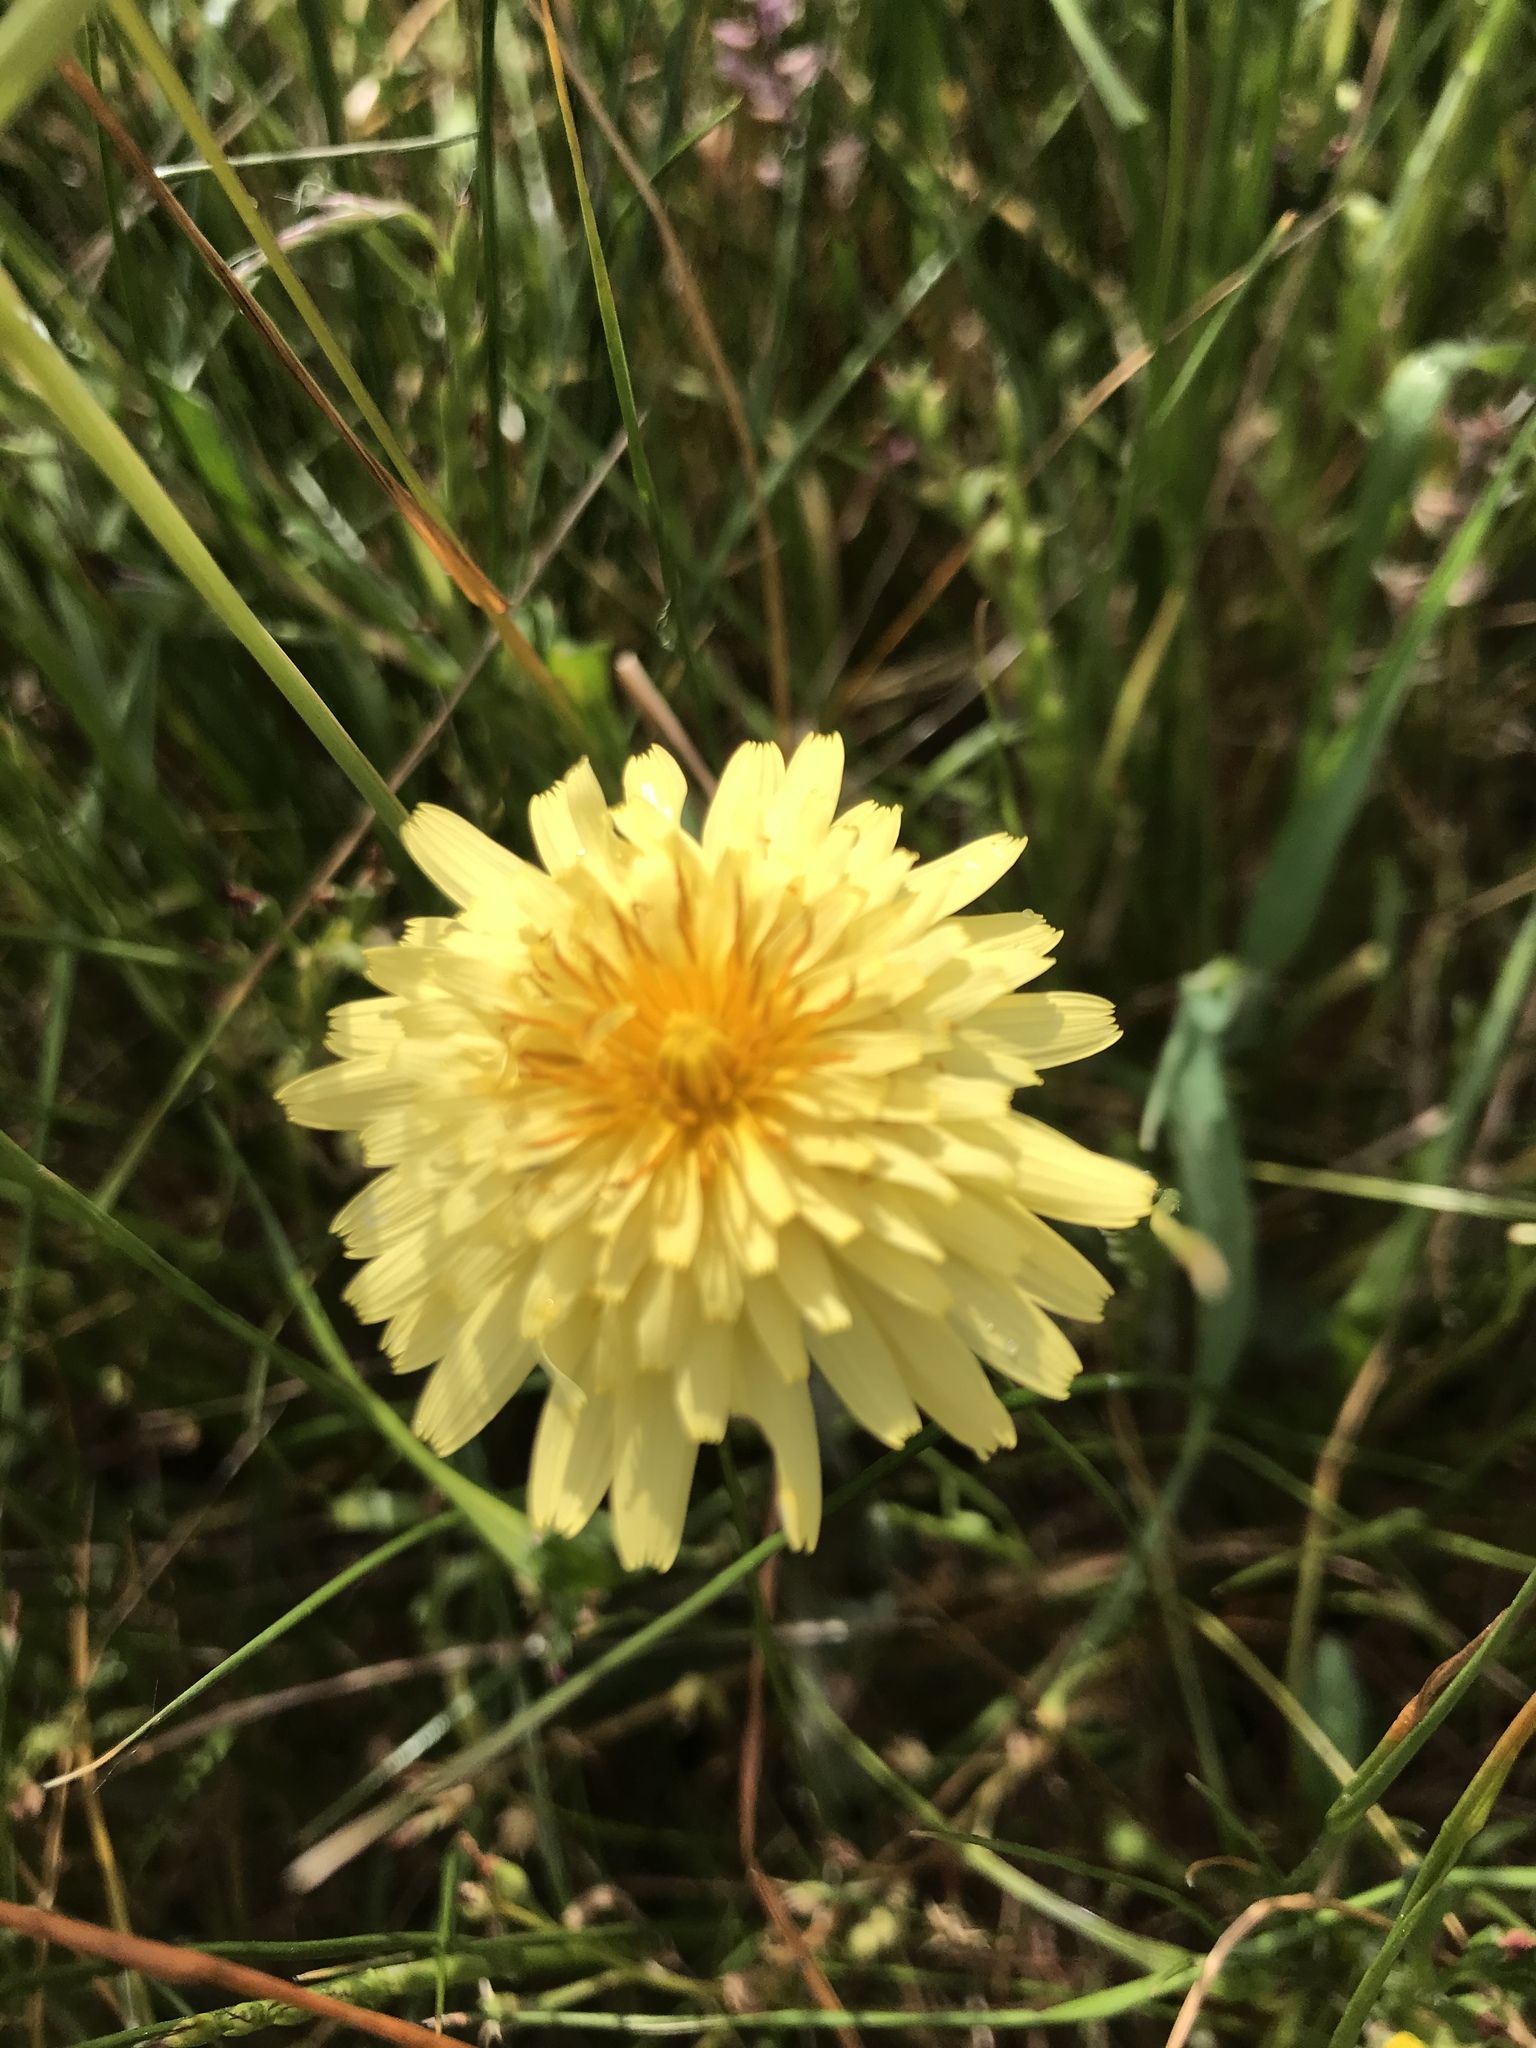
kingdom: Plantae
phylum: Tracheophyta
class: Magnoliopsida
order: Asterales
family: Asteraceae
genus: Agoseris
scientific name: Agoseris heterophylla
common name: Annual agoseris
